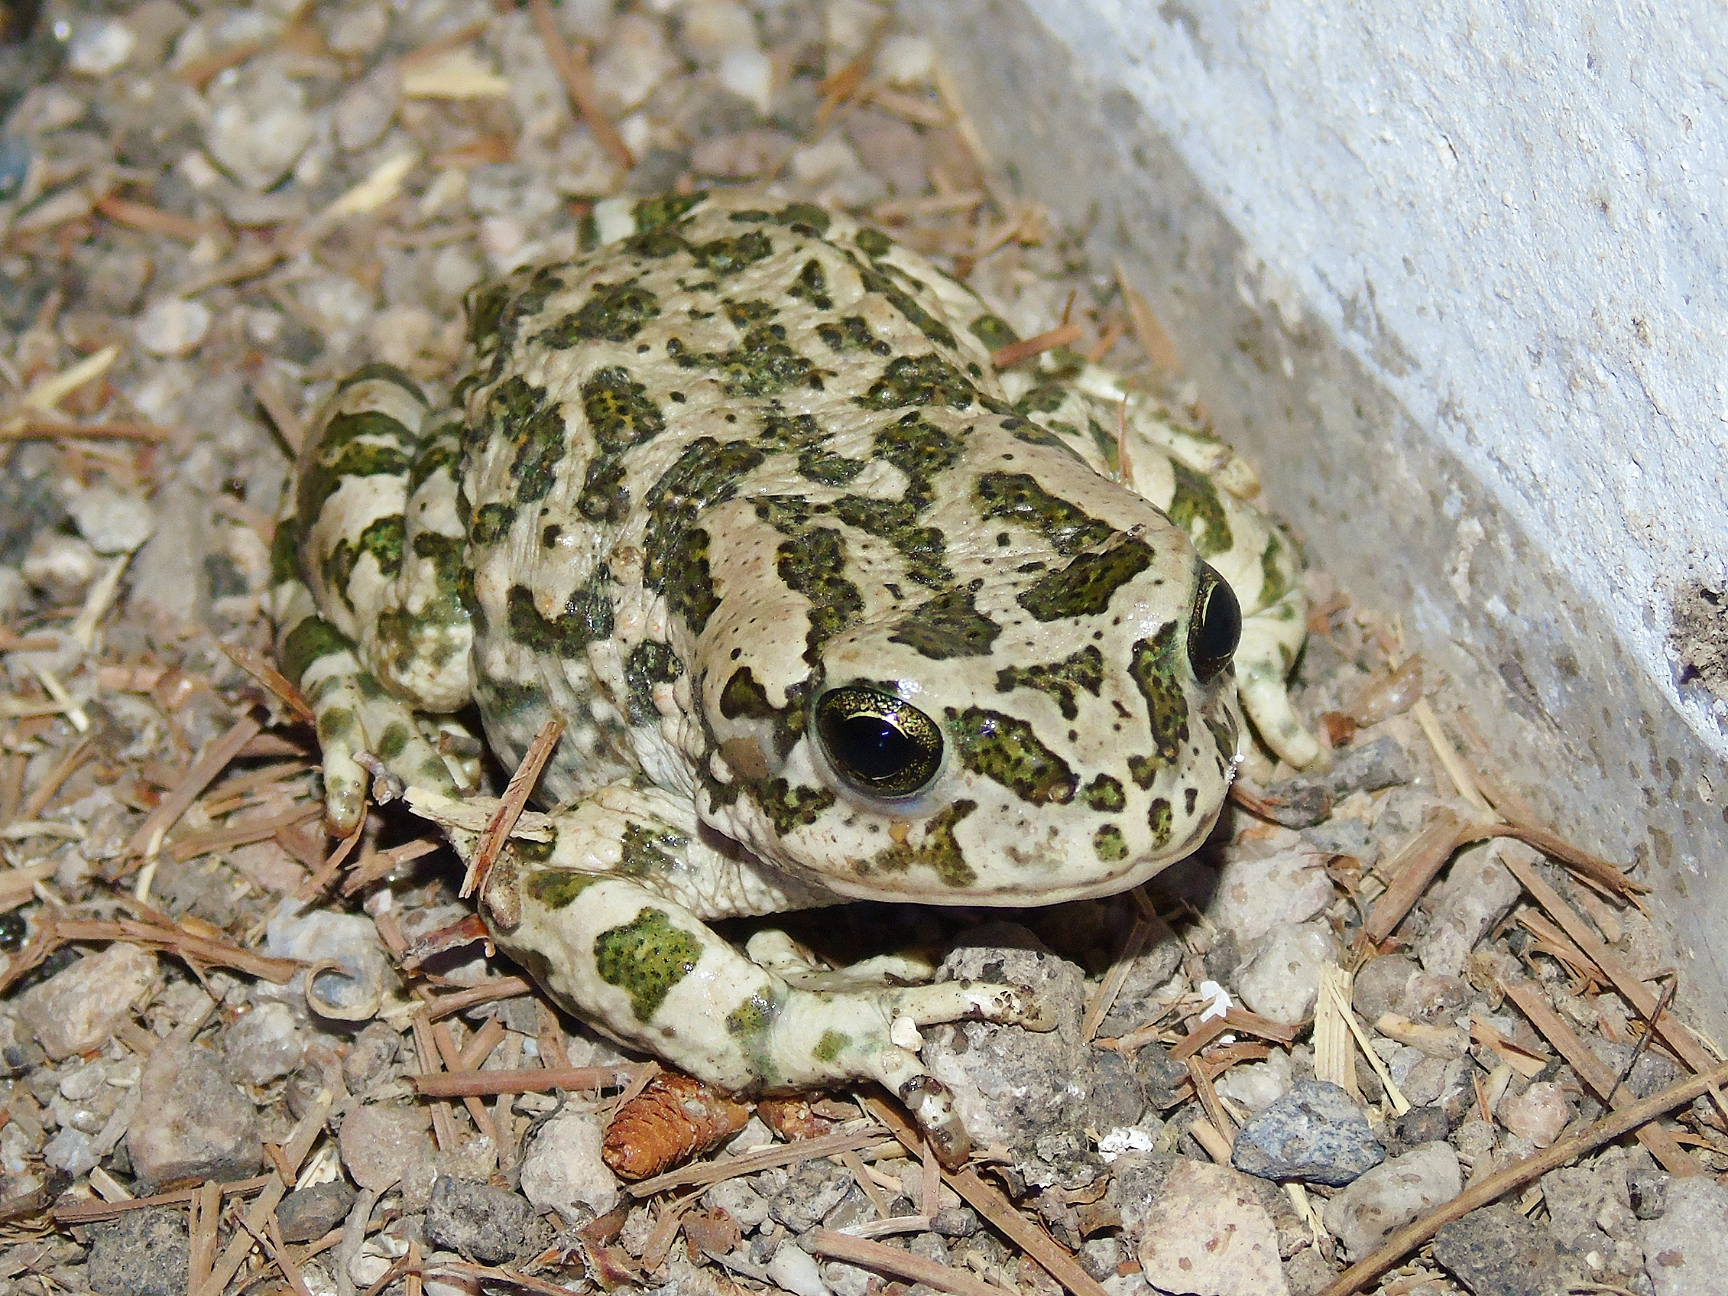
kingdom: Animalia
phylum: Chordata
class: Amphibia
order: Anura
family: Bufonidae
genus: Bufotes
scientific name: Bufotes pewzowi
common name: Xinjiang toad
